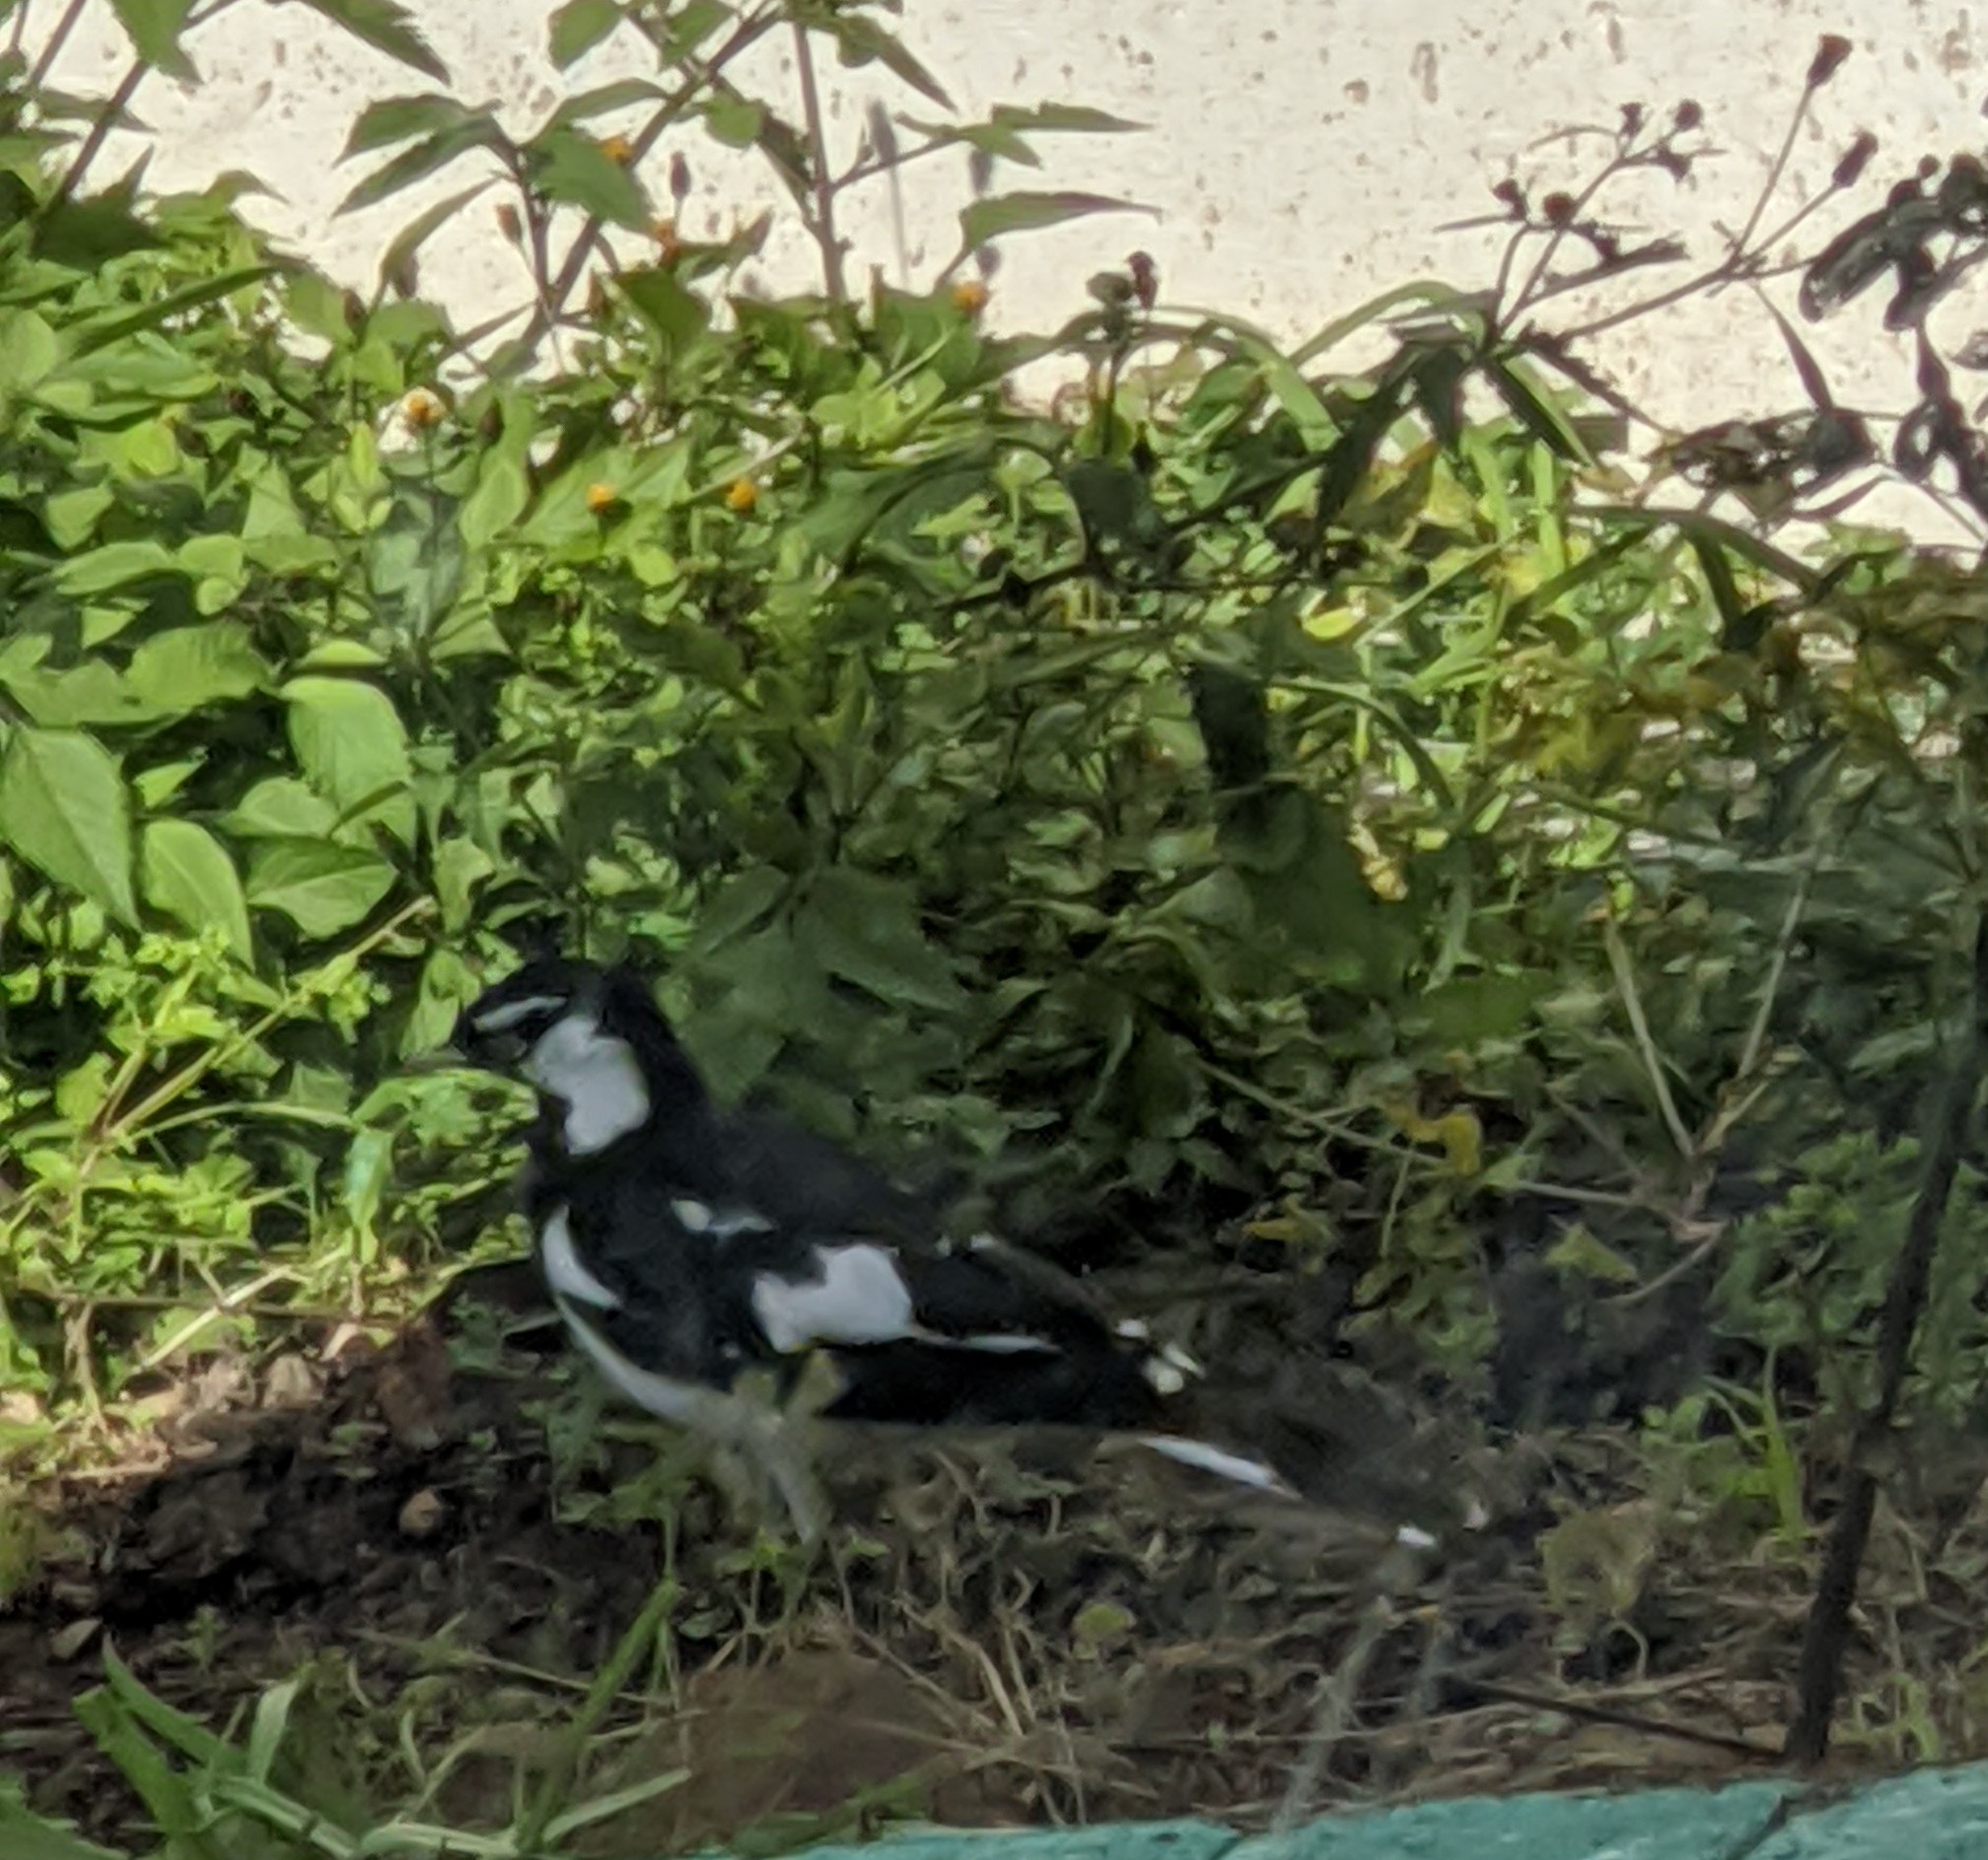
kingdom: Animalia
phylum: Chordata
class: Aves
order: Passeriformes
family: Monarchidae
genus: Grallina
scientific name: Grallina cyanoleuca
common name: Magpie-lark
